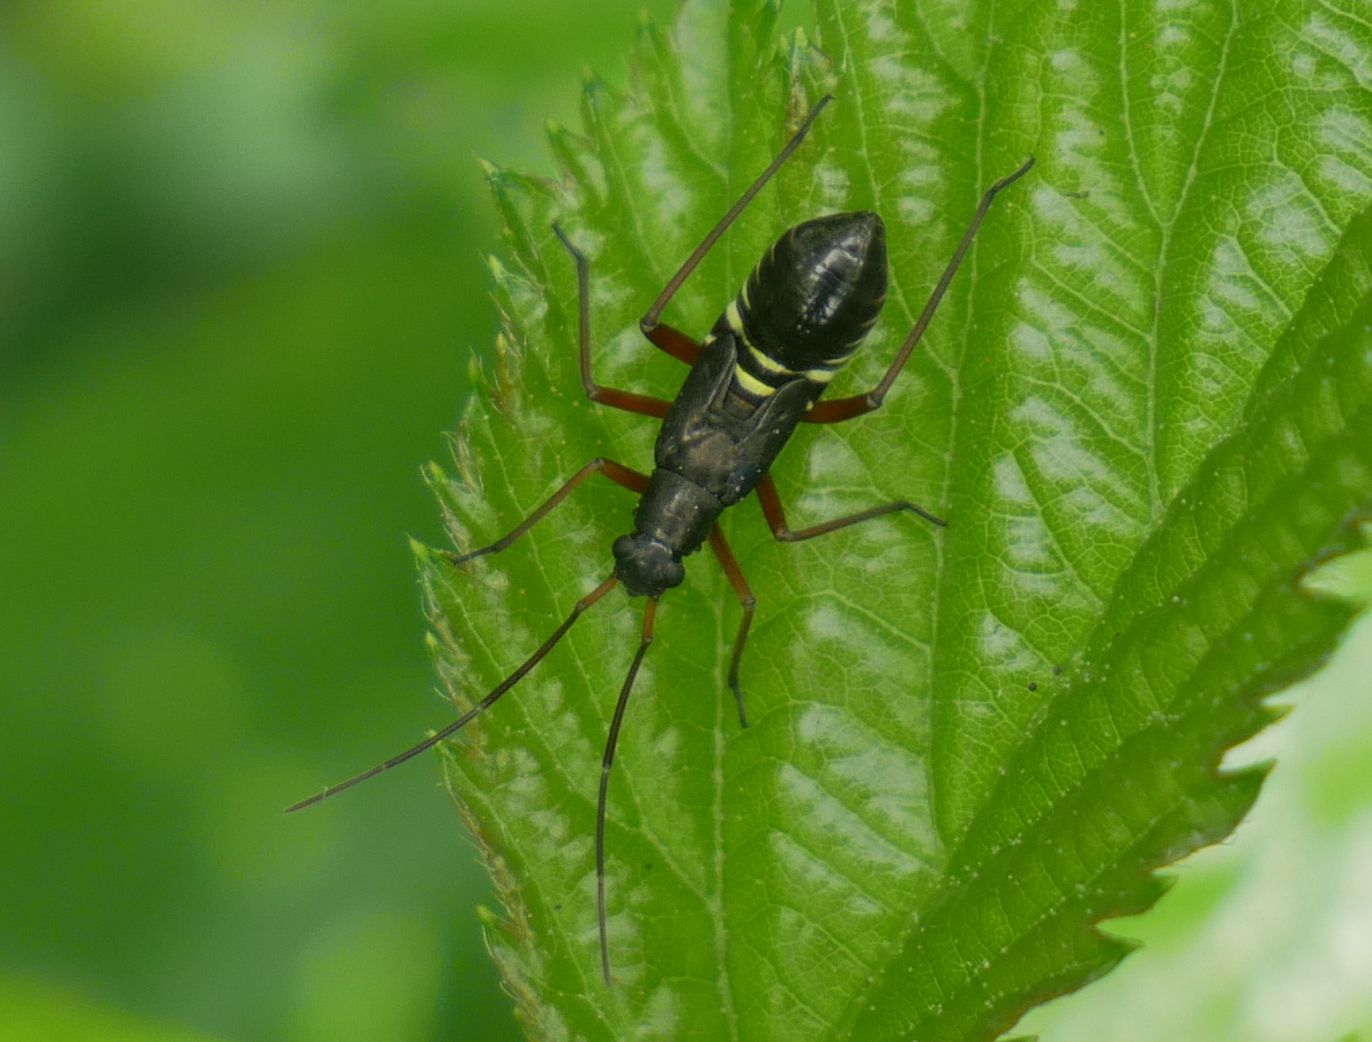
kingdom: Animalia
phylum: Arthropoda
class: Insecta
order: Hemiptera
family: Miridae
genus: Miris
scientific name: Miris striatus
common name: Fine streaked bugkin
